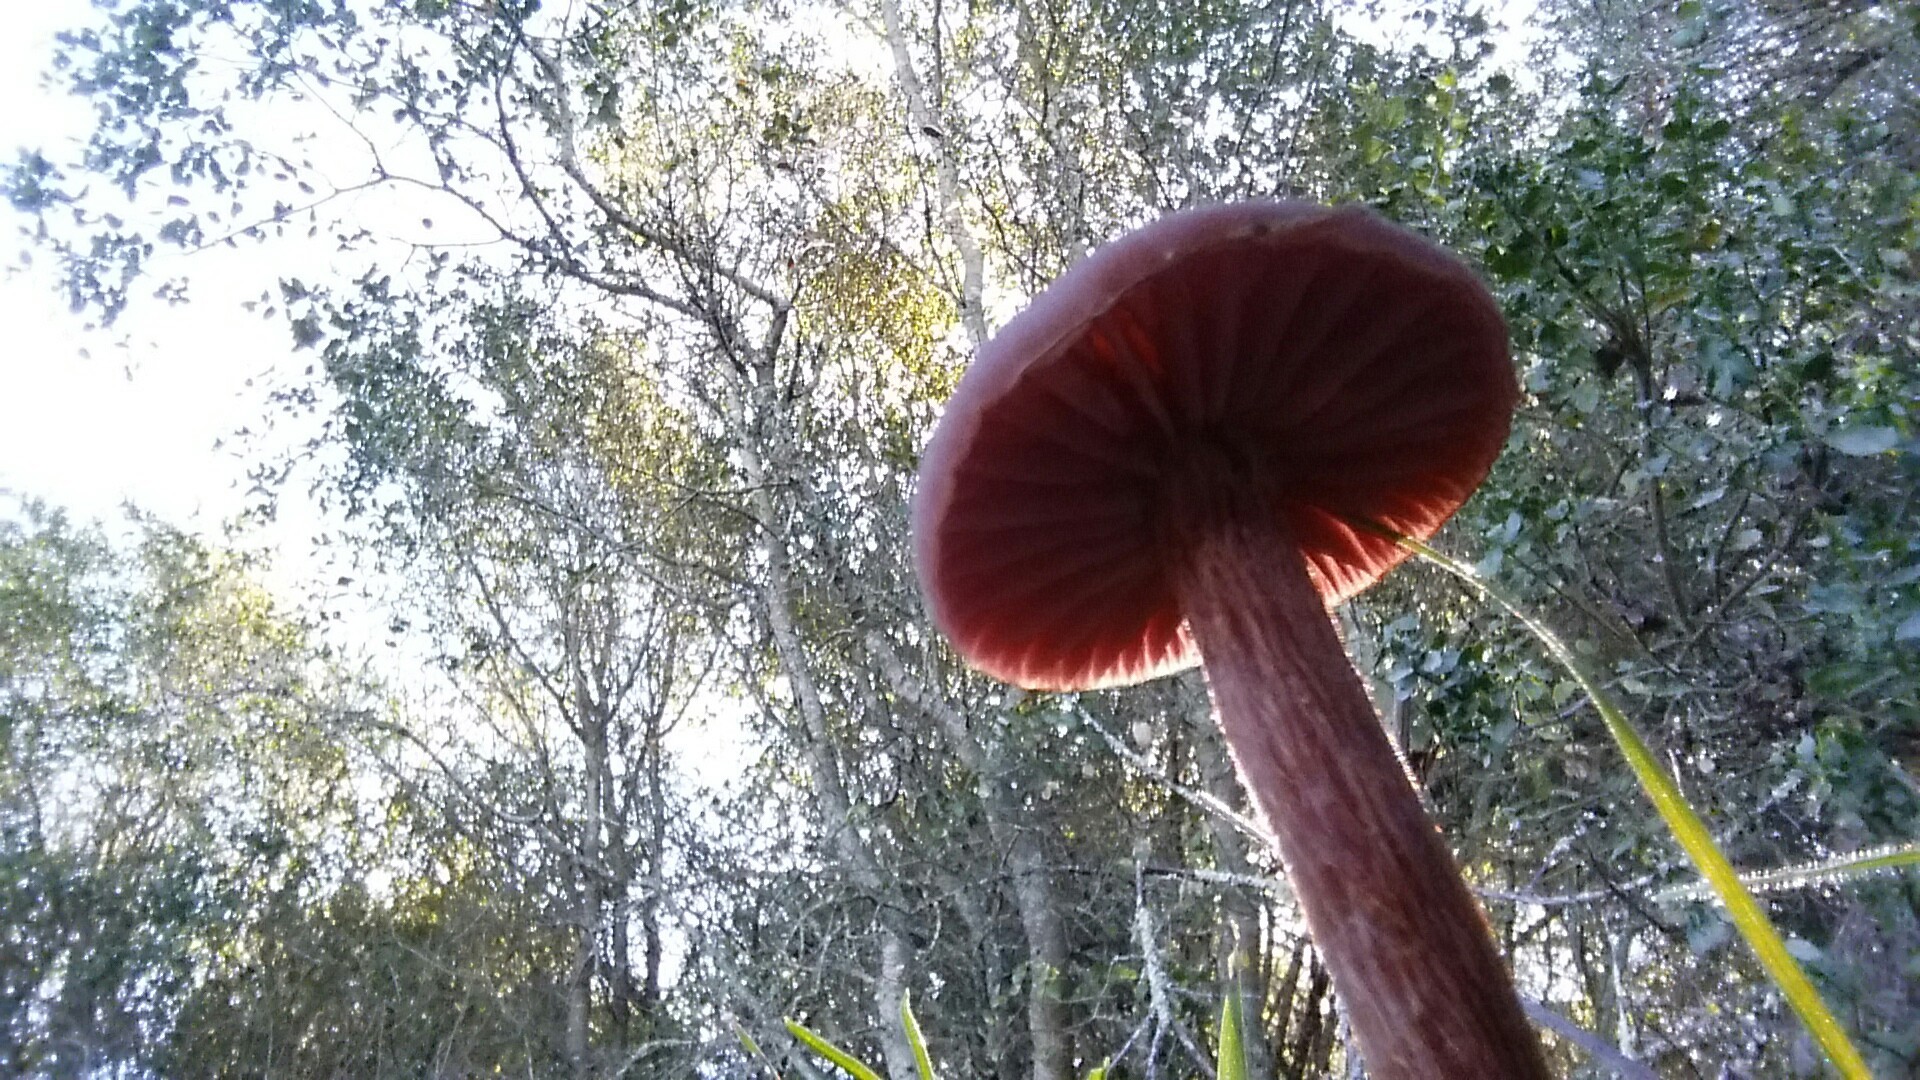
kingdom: Fungi
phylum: Basidiomycota
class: Agaricomycetes
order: Agaricales
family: Hydnangiaceae
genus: Laccaria
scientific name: Laccaria amethysteo-occidentalis
